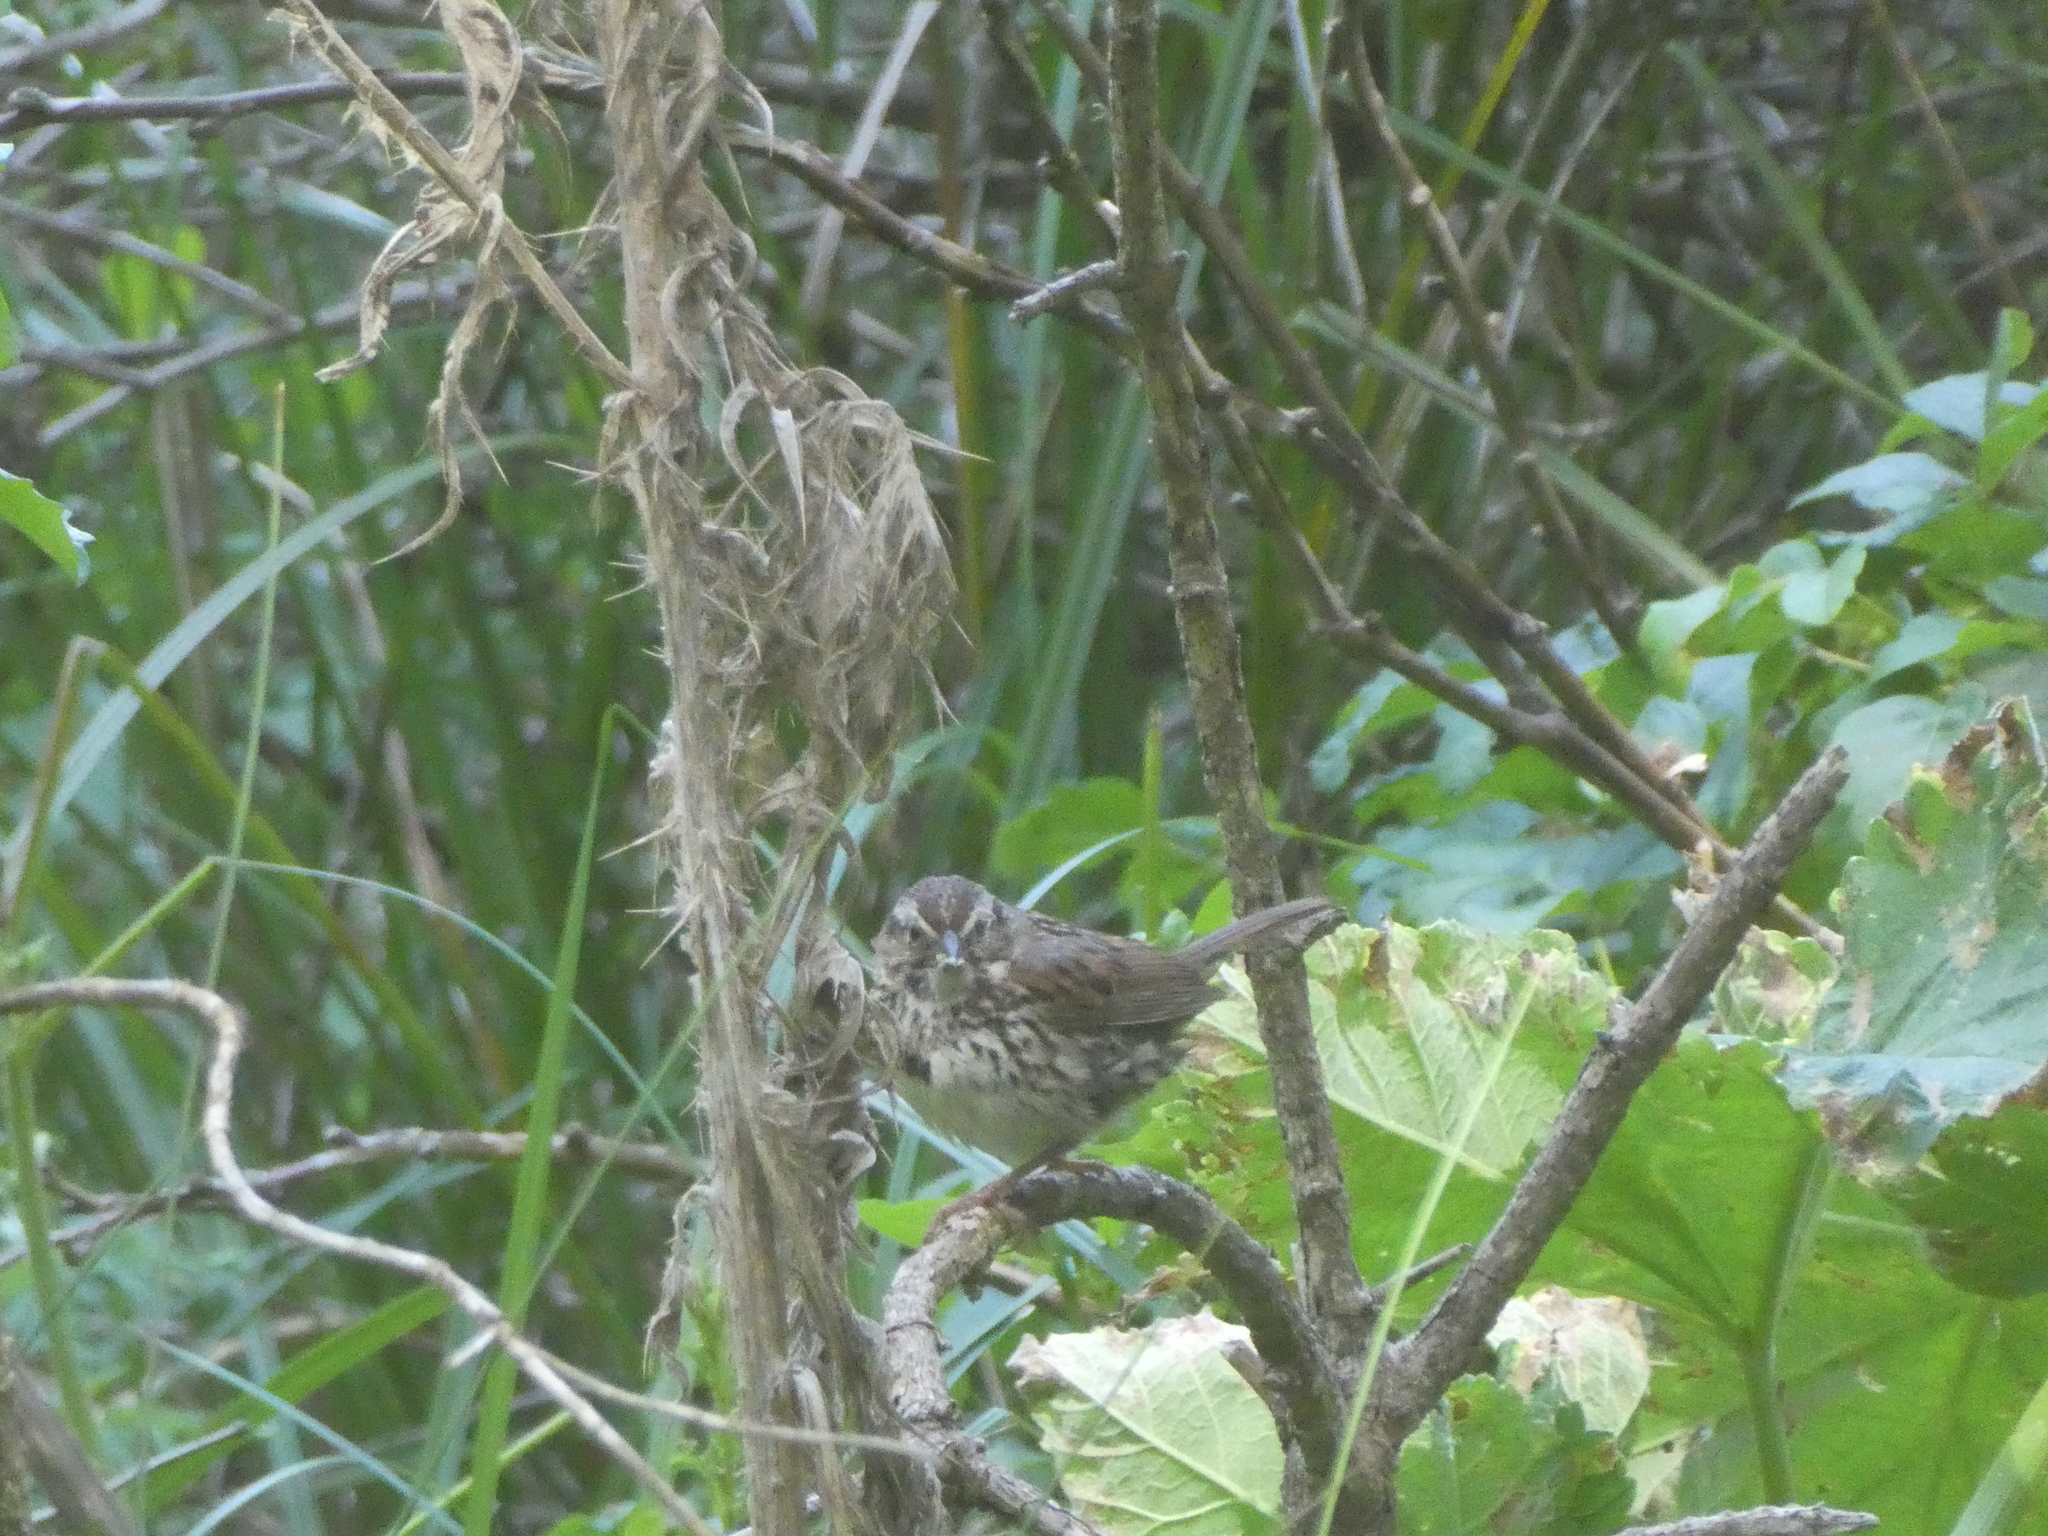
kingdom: Animalia
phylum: Chordata
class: Aves
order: Passeriformes
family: Passerellidae
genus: Melospiza
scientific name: Melospiza melodia
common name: Song sparrow
